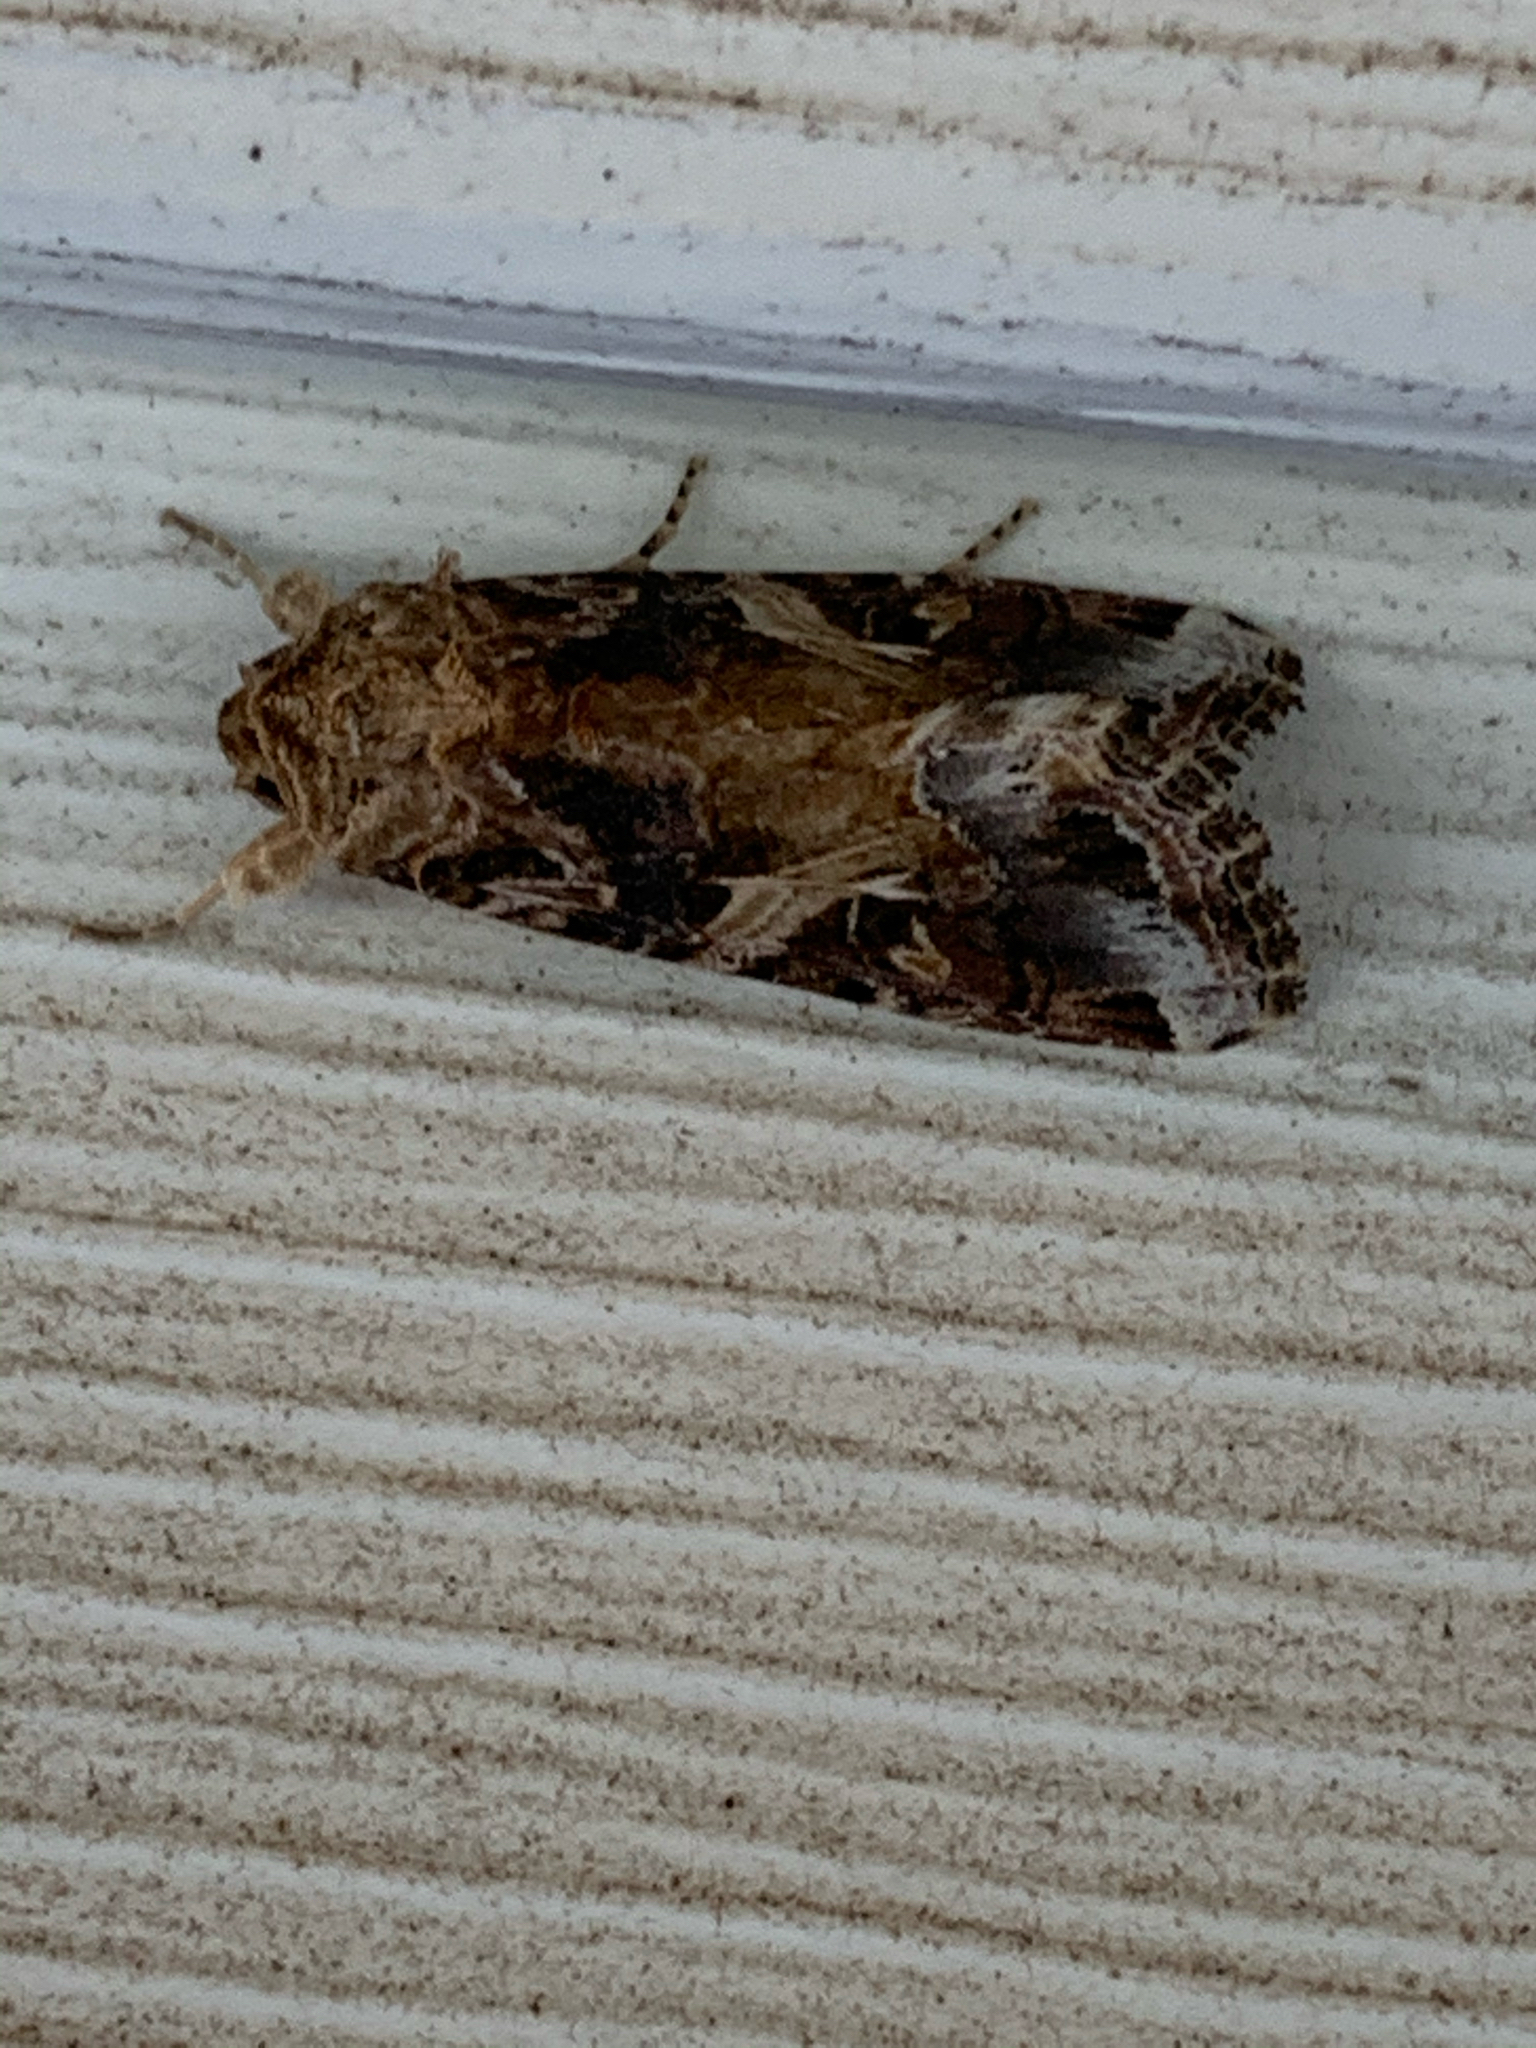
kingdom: Animalia
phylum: Arthropoda
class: Insecta
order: Lepidoptera
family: Noctuidae
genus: Spodoptera
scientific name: Spodoptera ornithogalli
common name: Yellow-striped armyworm
